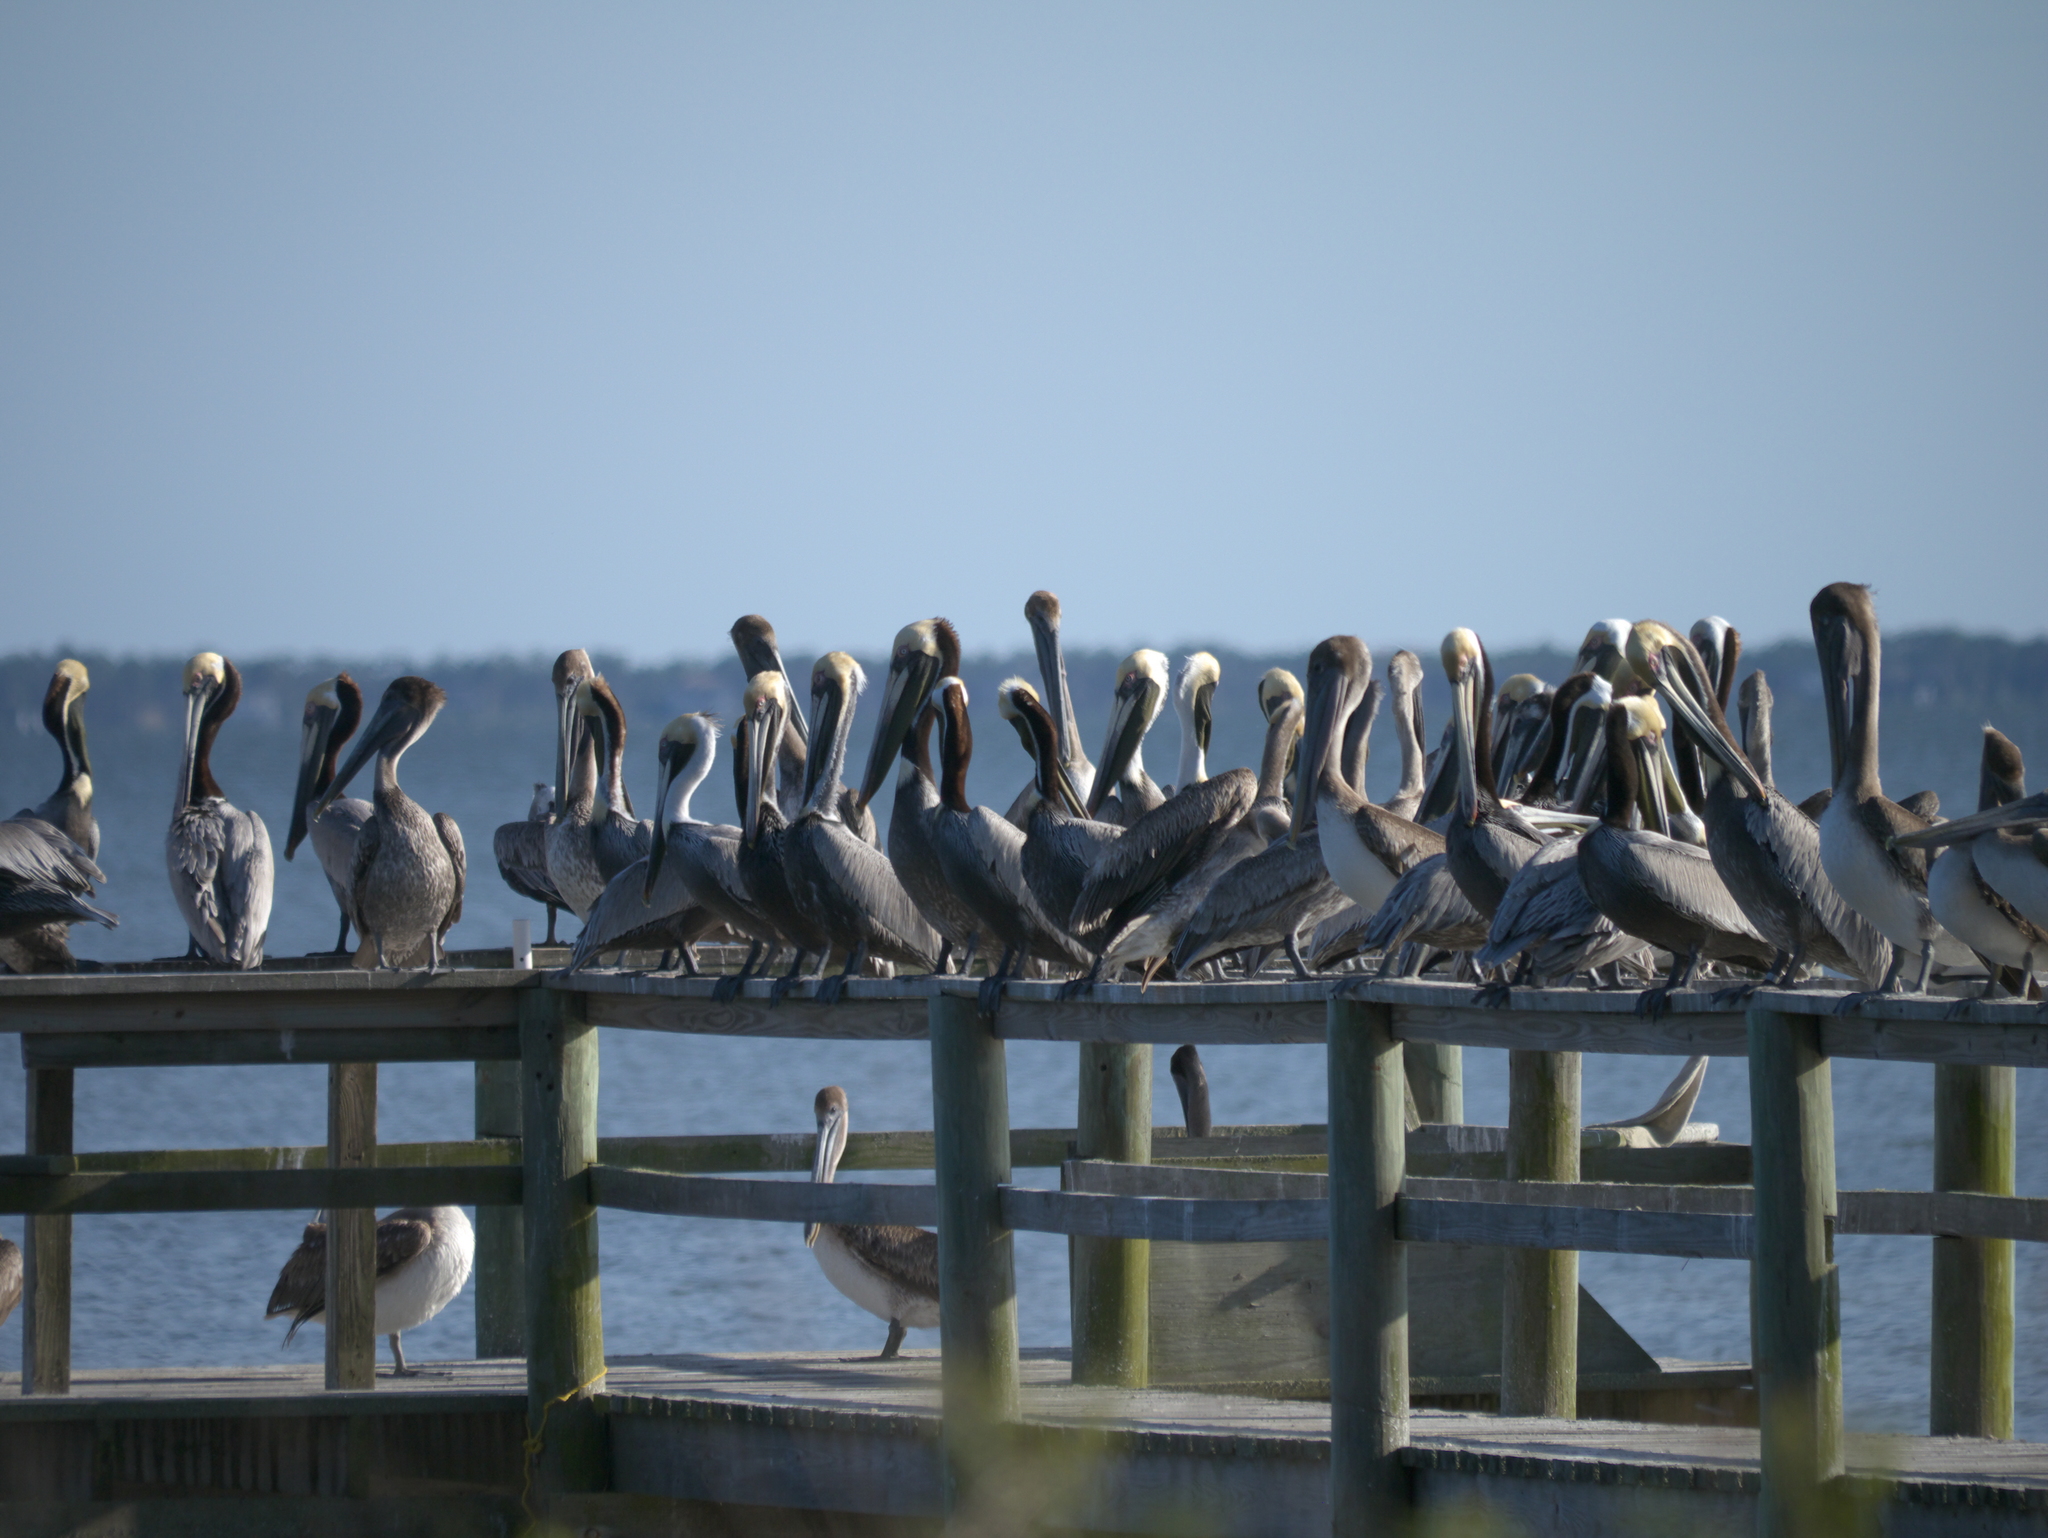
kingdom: Animalia
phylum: Chordata
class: Aves
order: Pelecaniformes
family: Pelecanidae
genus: Pelecanus
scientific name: Pelecanus occidentalis
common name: Brown pelican
